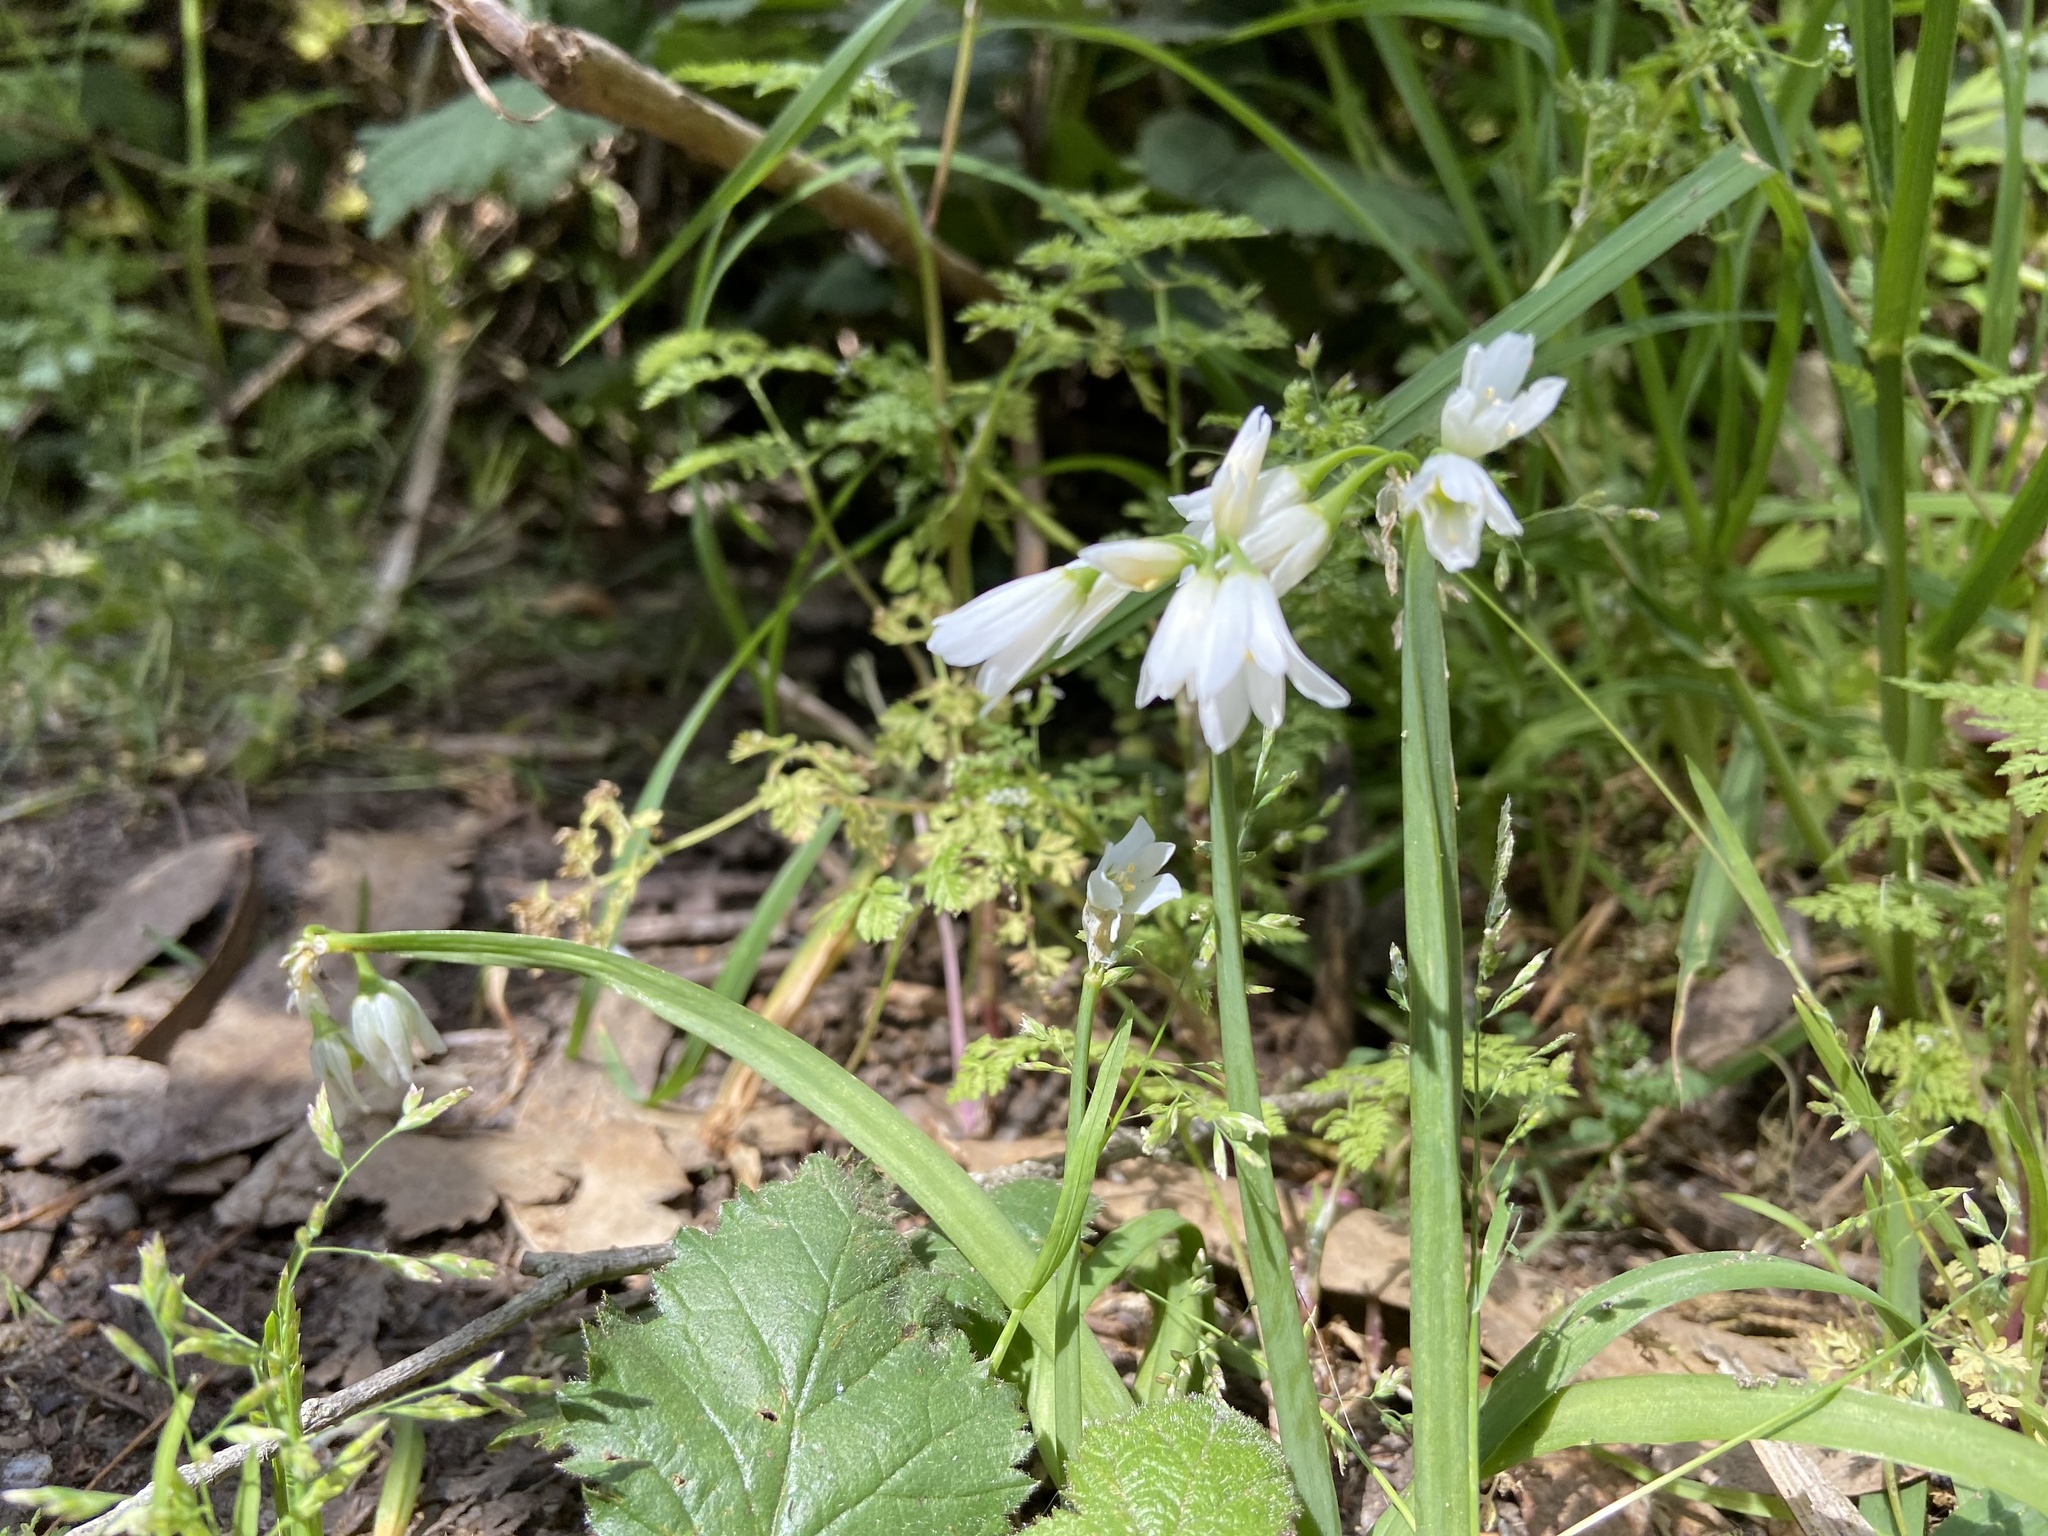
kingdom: Plantae
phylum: Tracheophyta
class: Liliopsida
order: Asparagales
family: Amaryllidaceae
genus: Allium
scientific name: Allium triquetrum
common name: Three-cornered garlic
